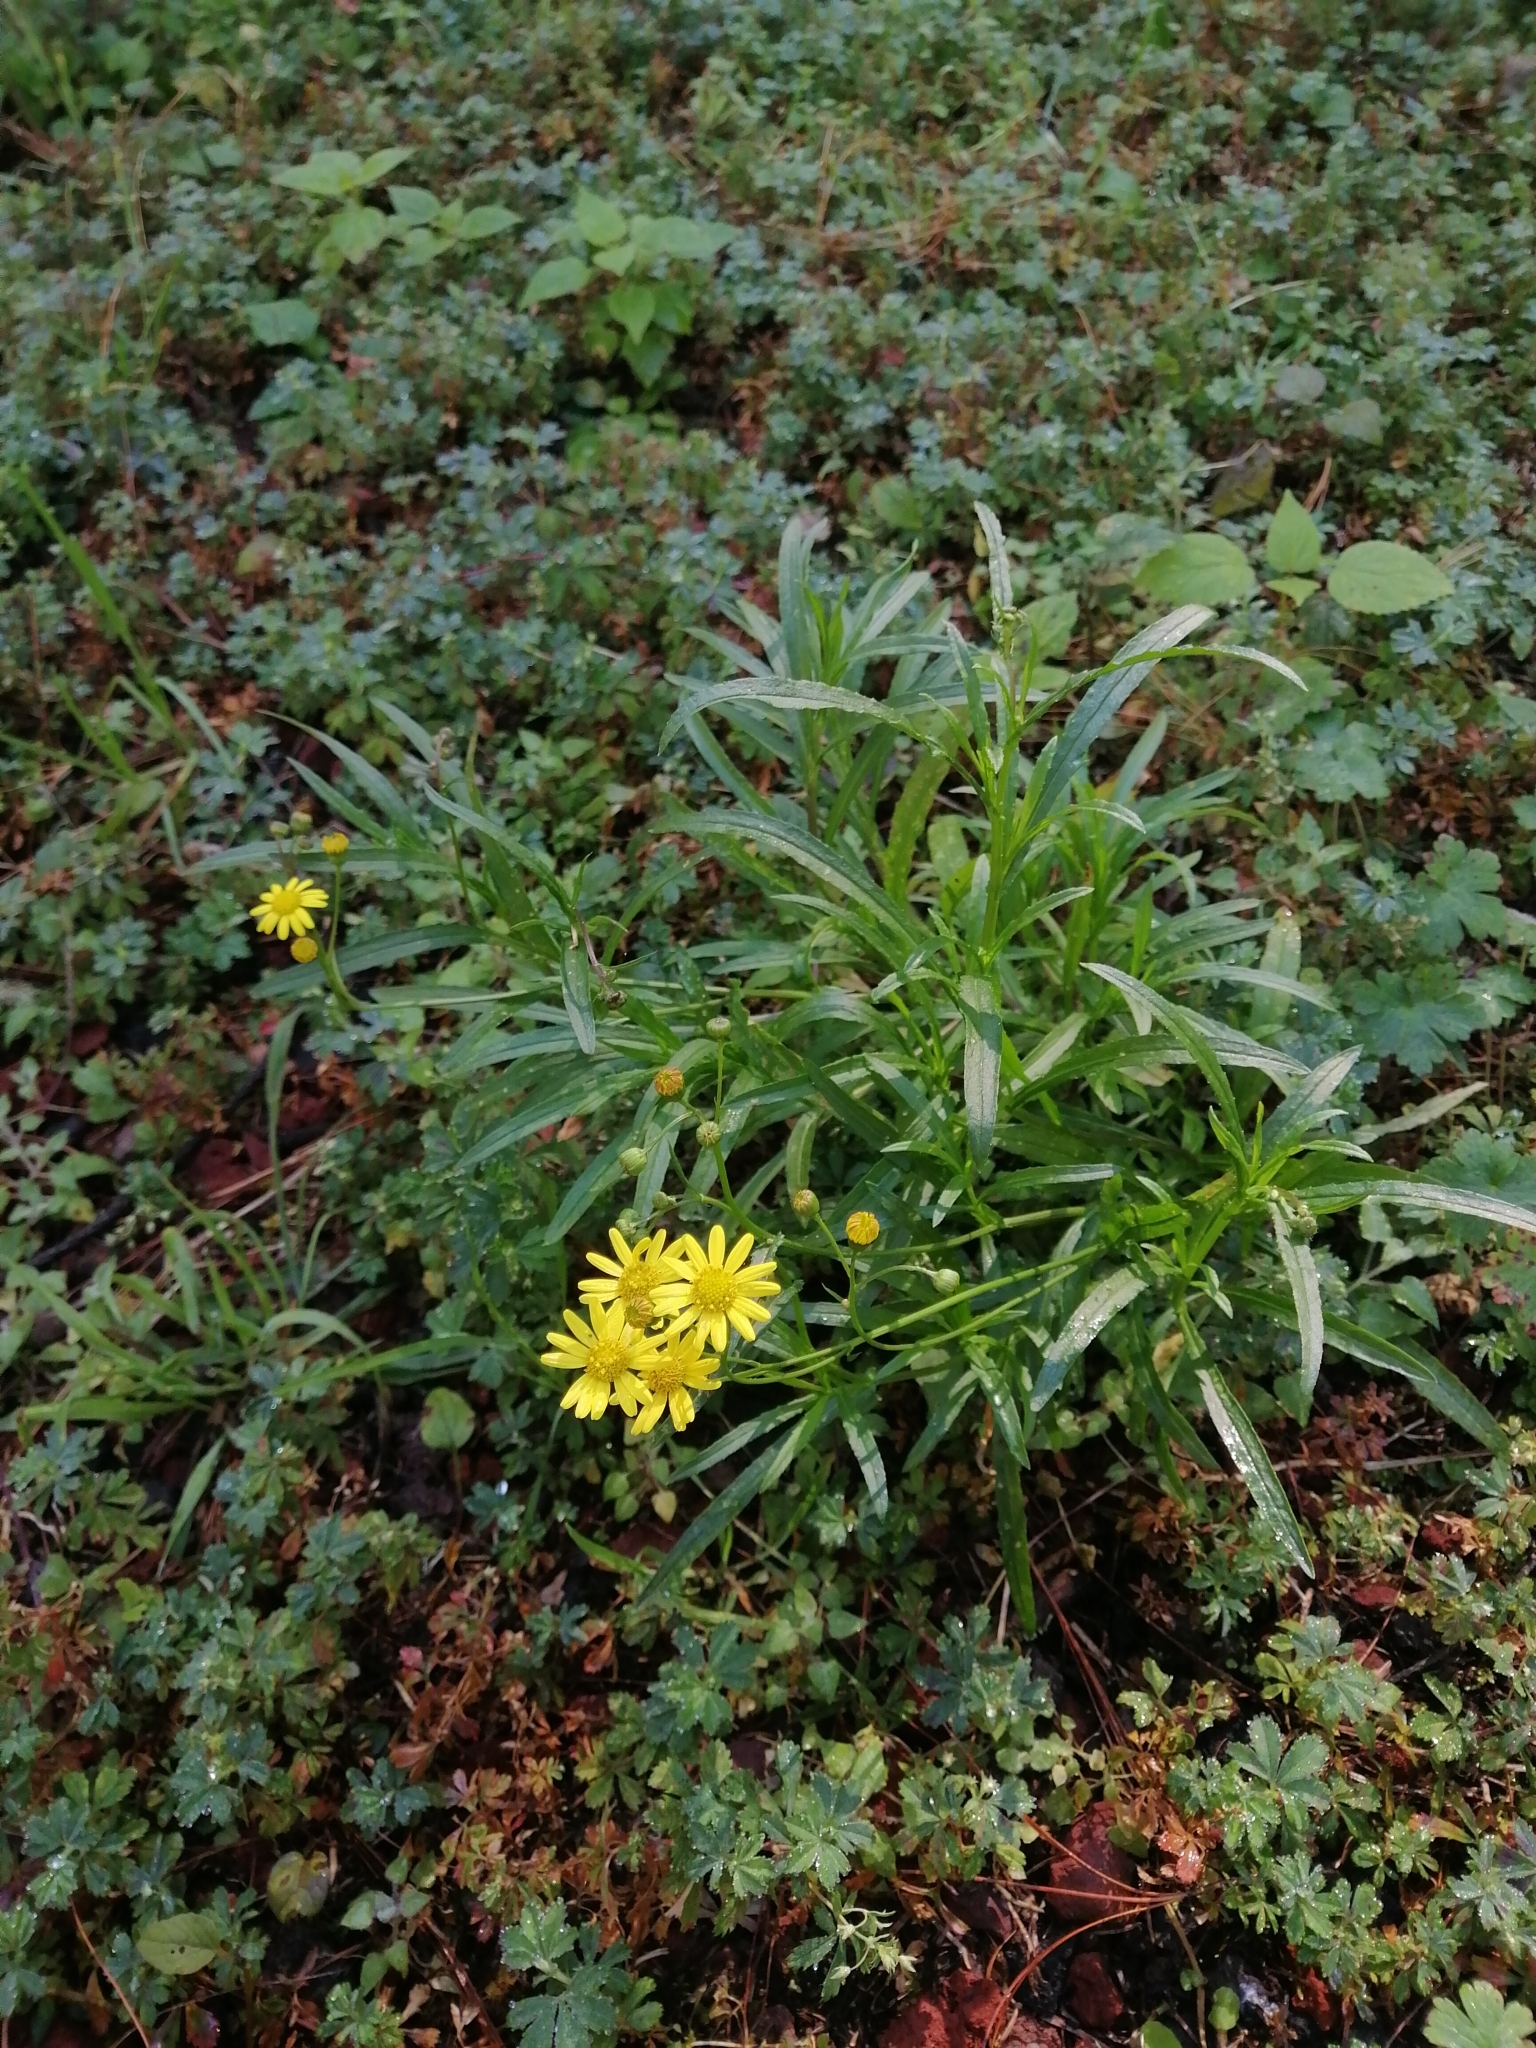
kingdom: Plantae
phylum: Tracheophyta
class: Magnoliopsida
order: Asterales
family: Asteraceae
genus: Senecio
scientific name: Senecio inaequidens
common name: Narrow-leaved ragwort
